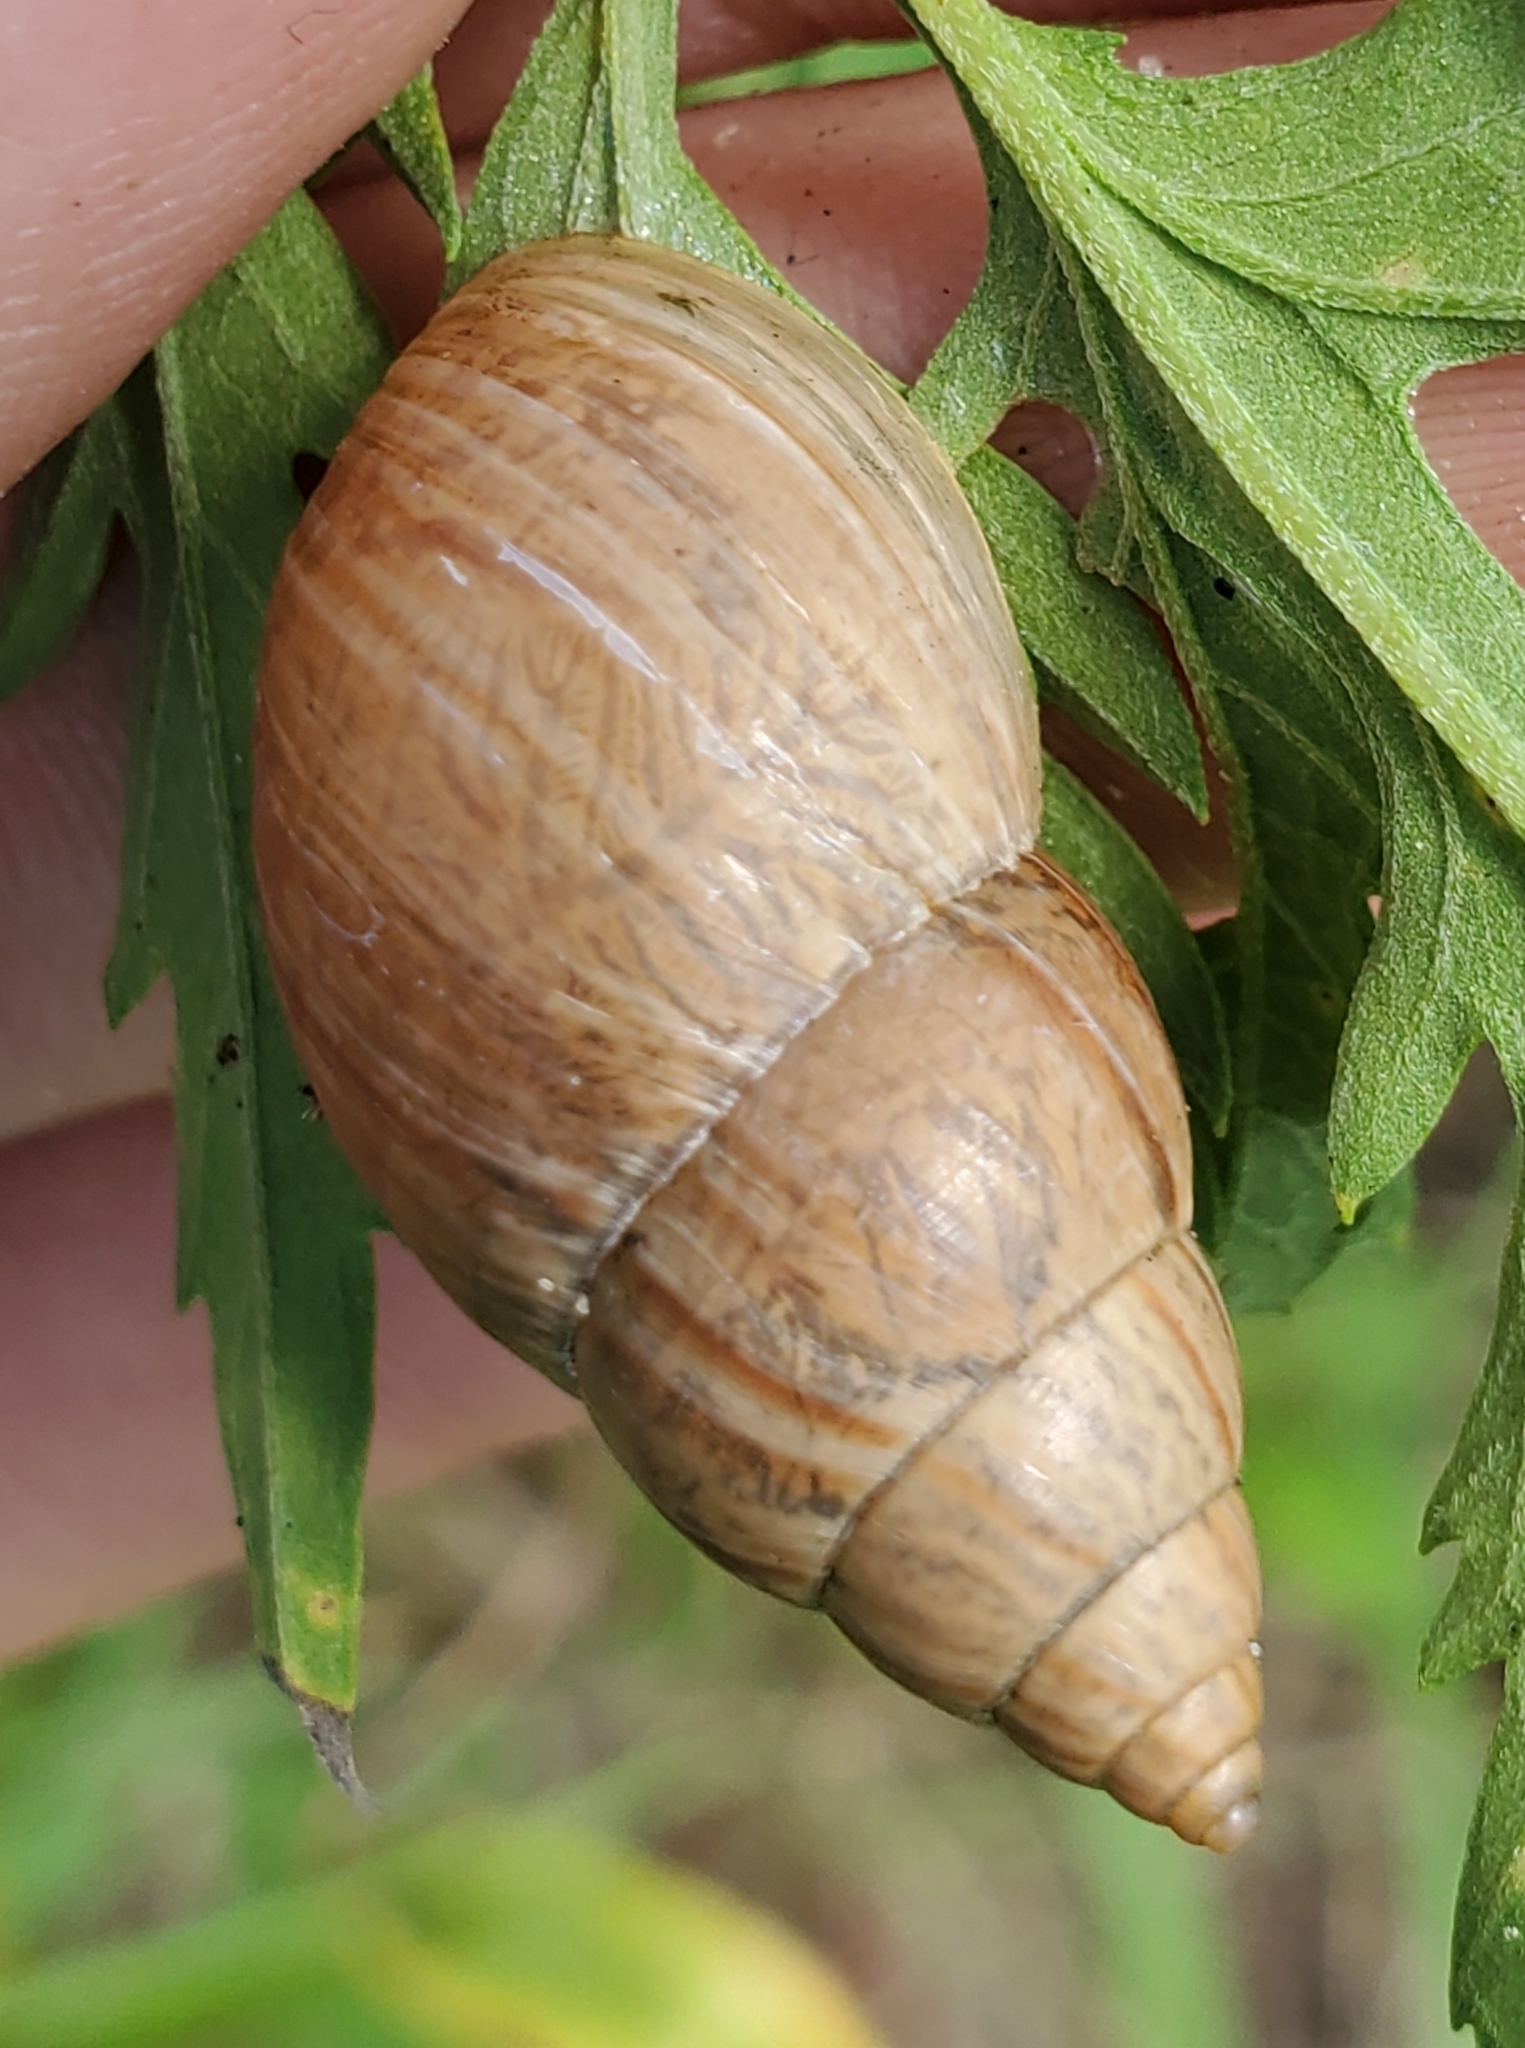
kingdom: Animalia
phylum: Mollusca
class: Gastropoda
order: Stylommatophora
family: Bulimulidae
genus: Bulimulus
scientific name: Bulimulus bonariensis
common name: Snail
